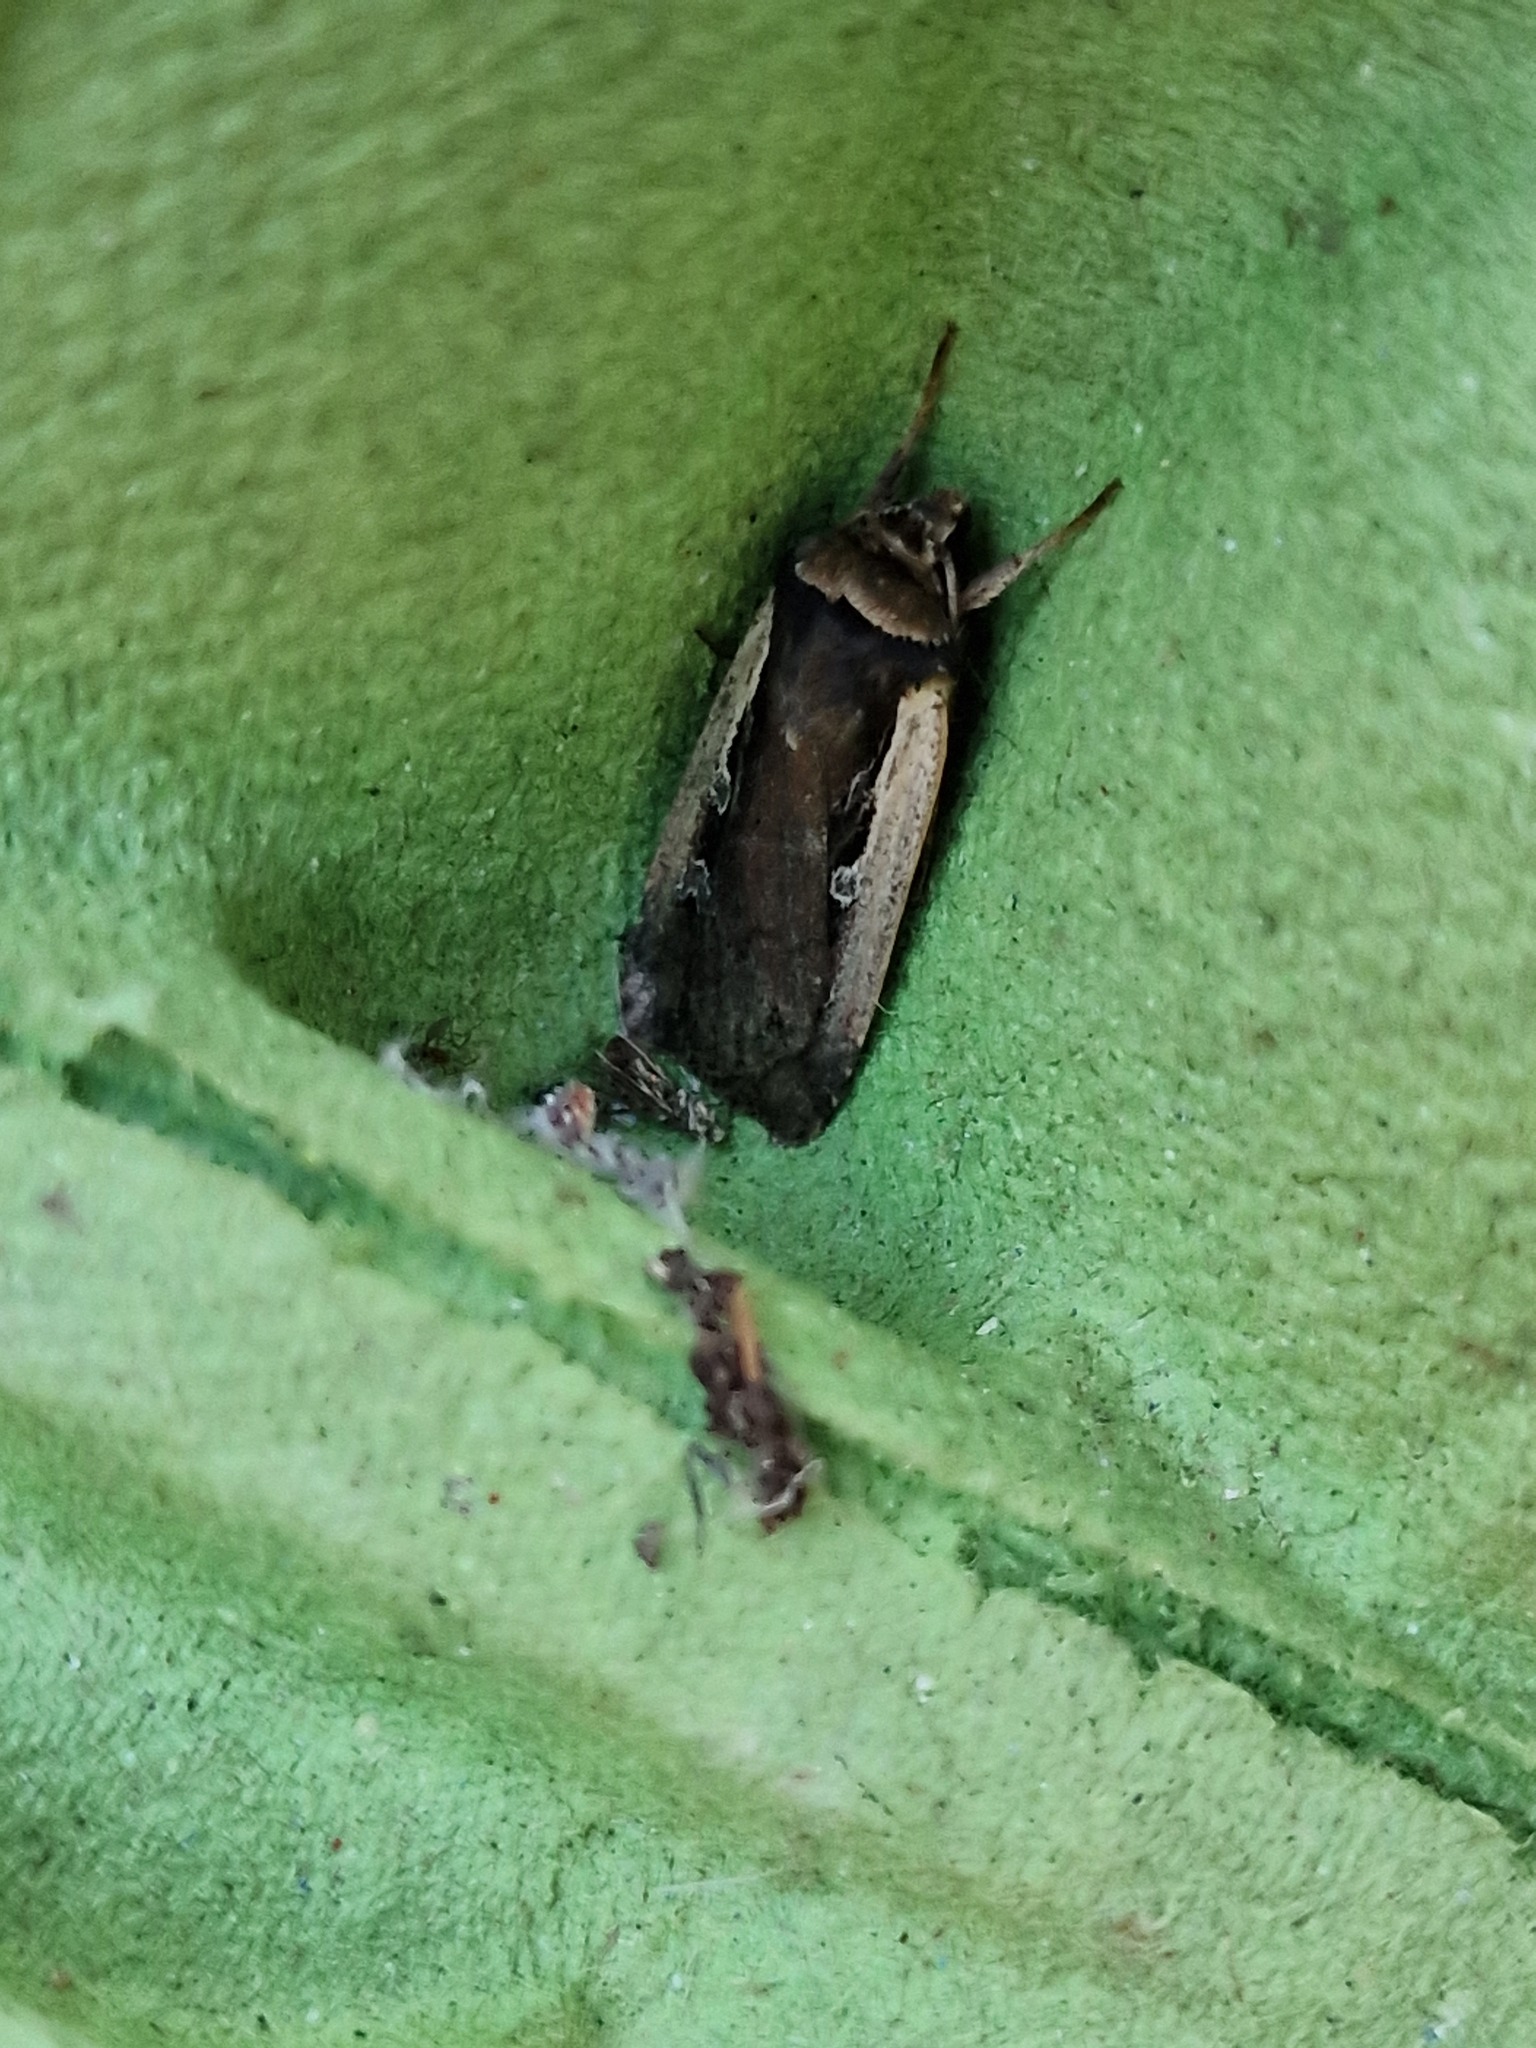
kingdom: Animalia
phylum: Arthropoda
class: Insecta
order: Lepidoptera
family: Noctuidae
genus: Ochropleura
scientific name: Ochropleura plecta
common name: Flame shoulder
